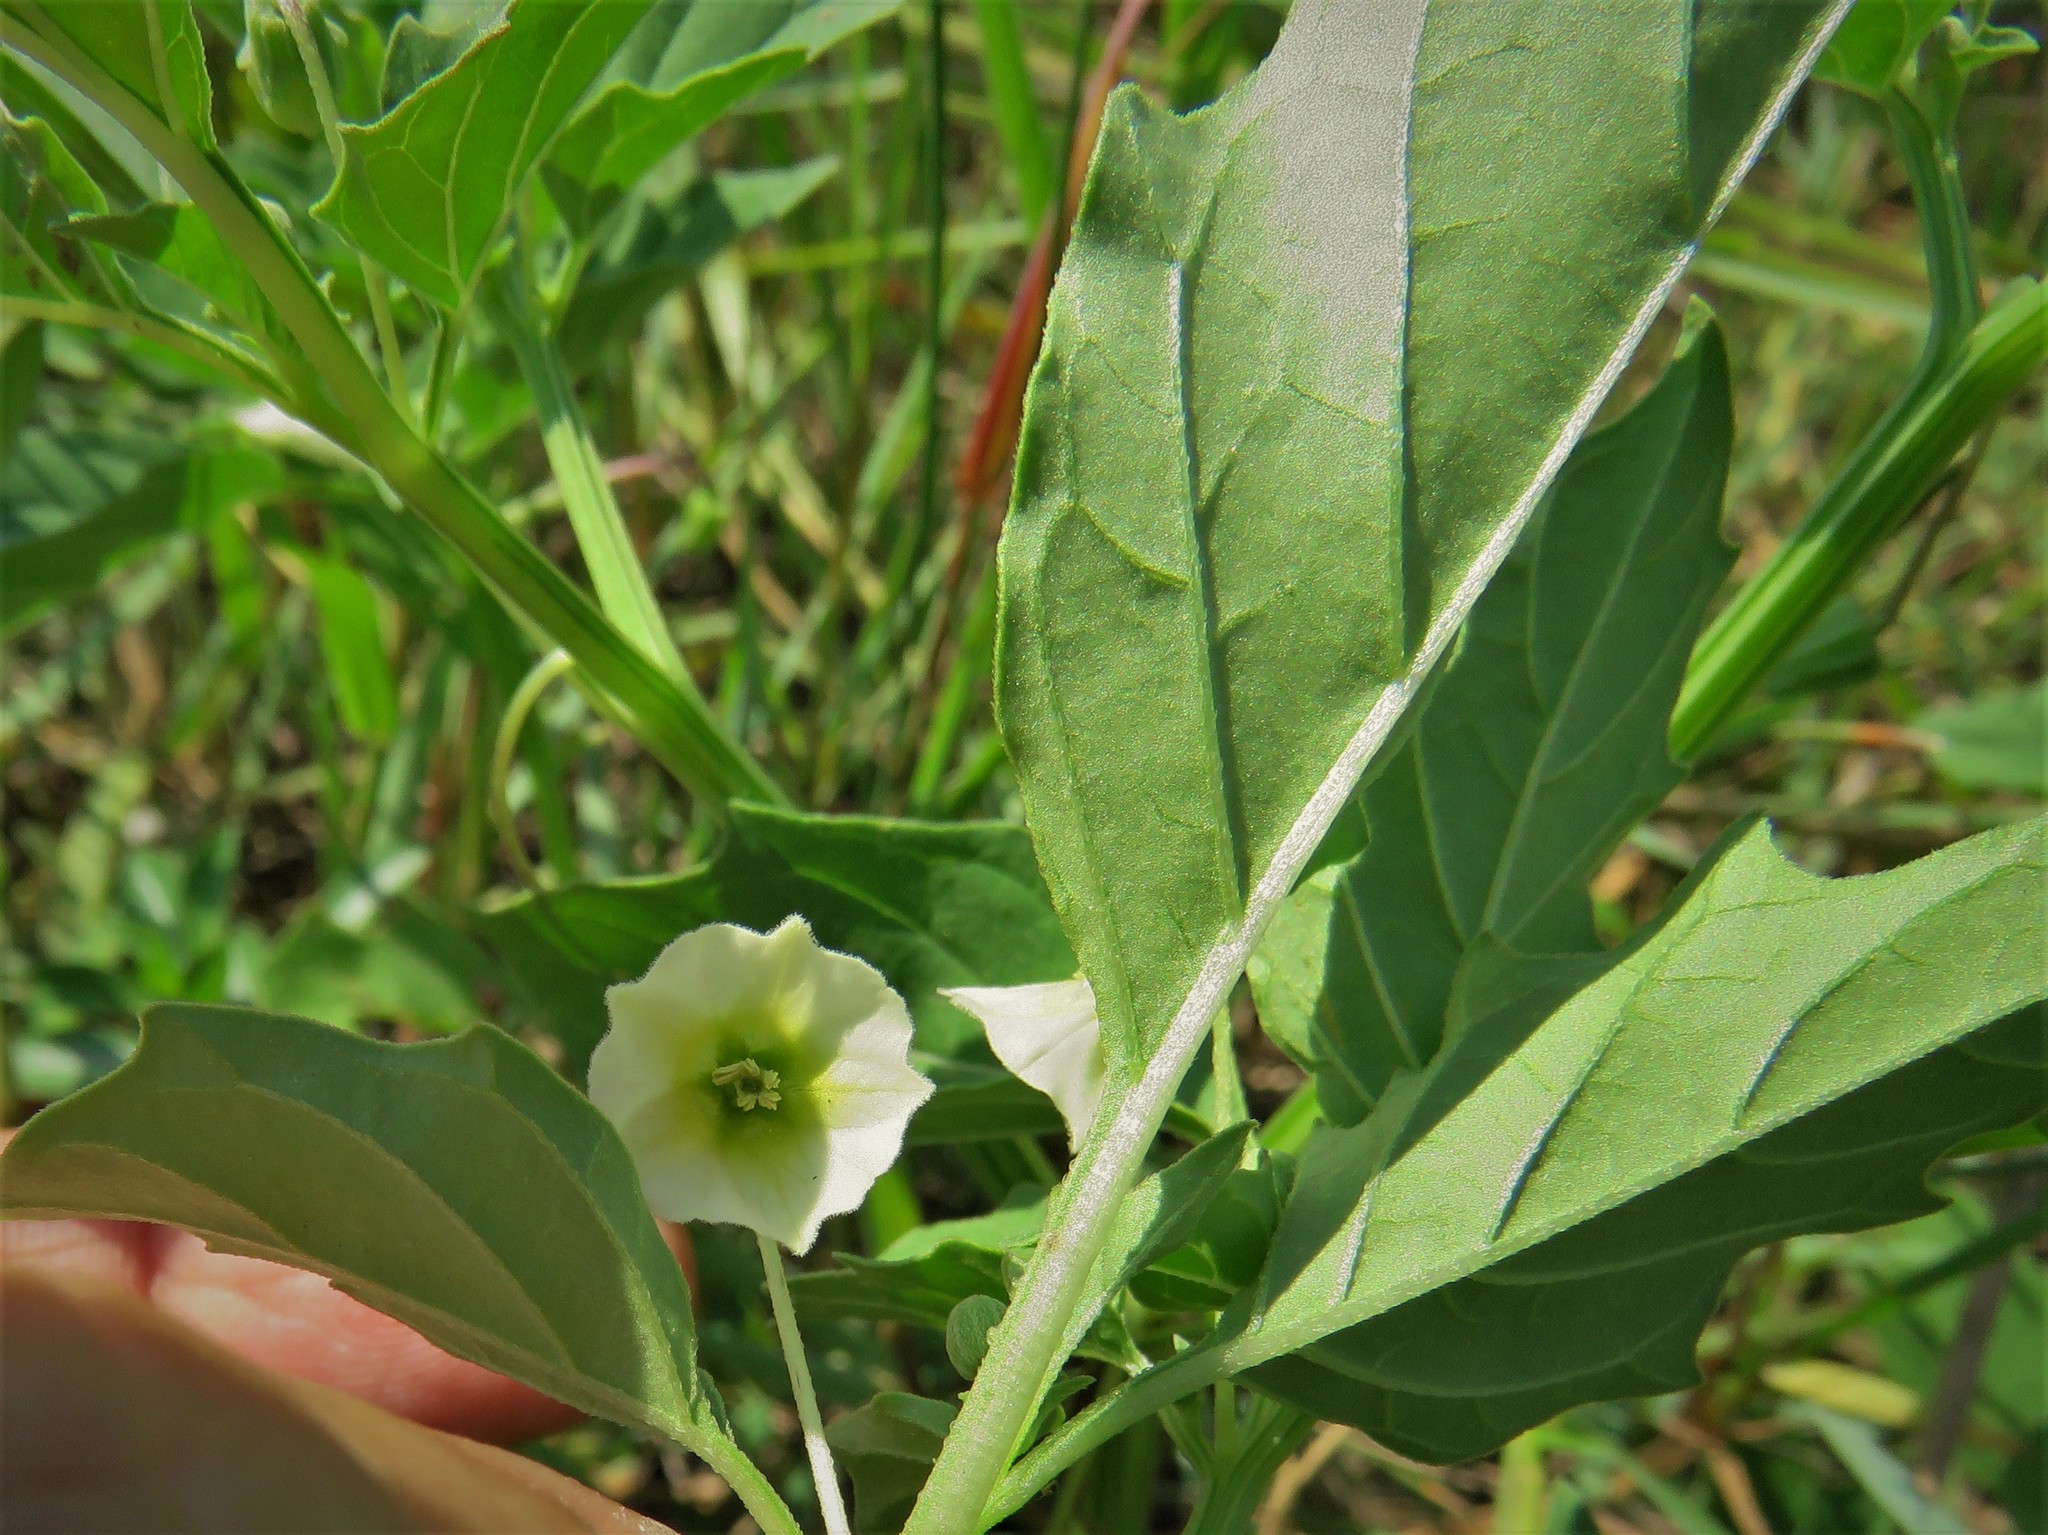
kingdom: Plantae
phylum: Tracheophyta
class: Magnoliopsida
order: Solanales
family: Solanaceae
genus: Physalis
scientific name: Physalis angulata
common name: Angular winter-cherry
